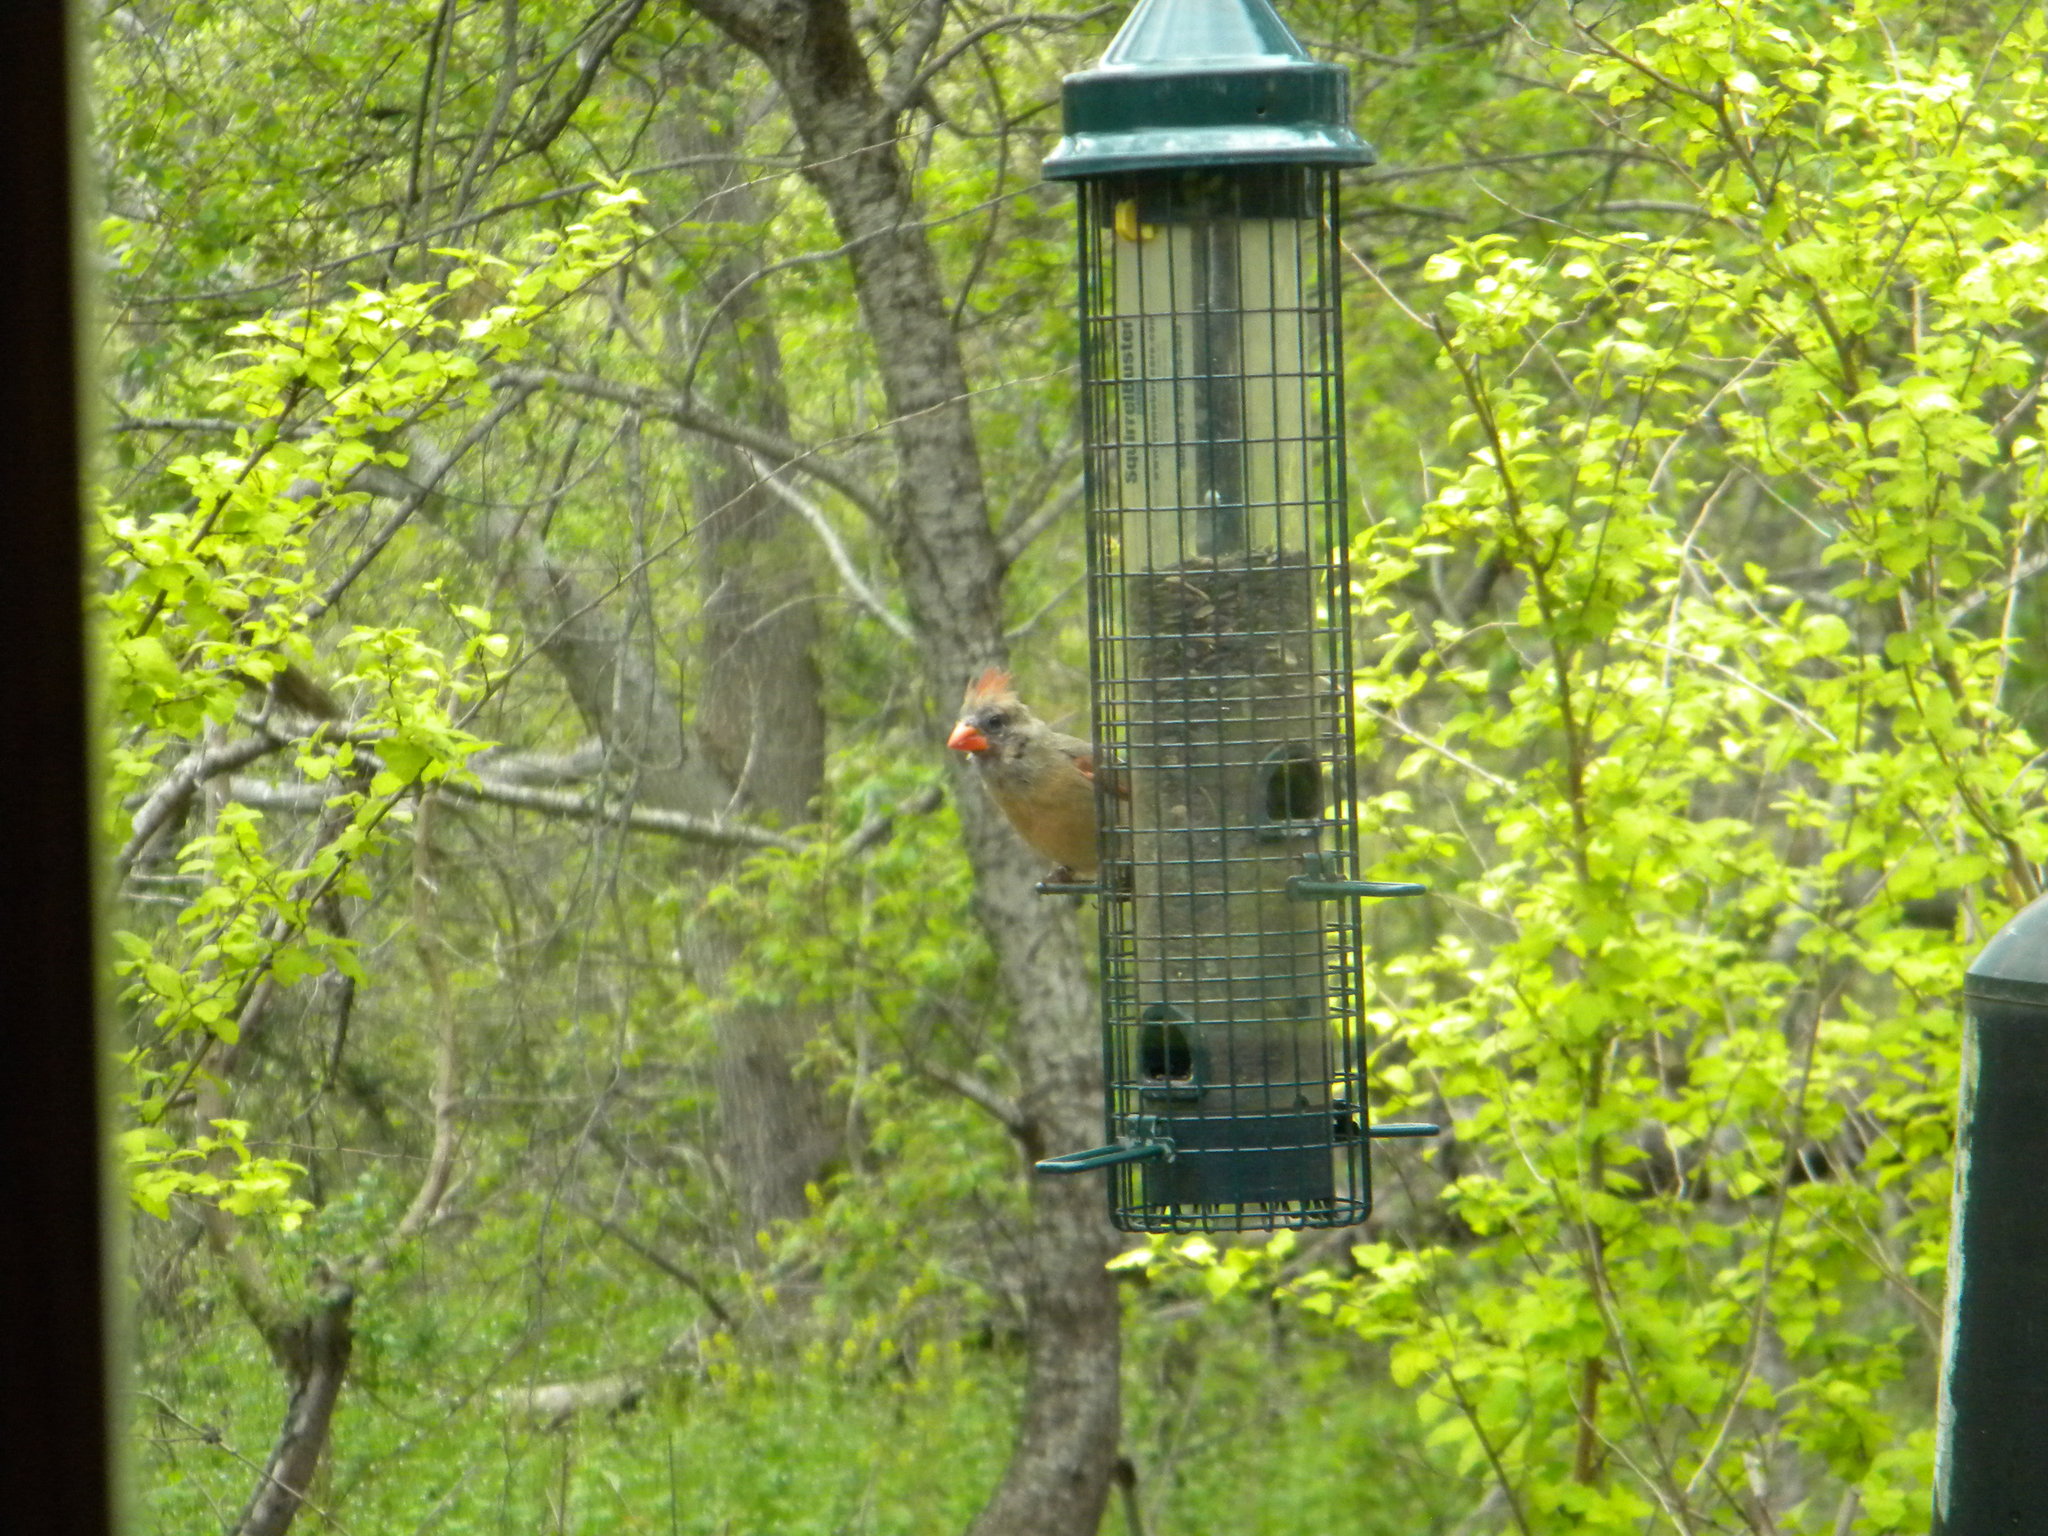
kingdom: Animalia
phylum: Chordata
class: Aves
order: Passeriformes
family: Cardinalidae
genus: Cardinalis
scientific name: Cardinalis cardinalis
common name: Northern cardinal
